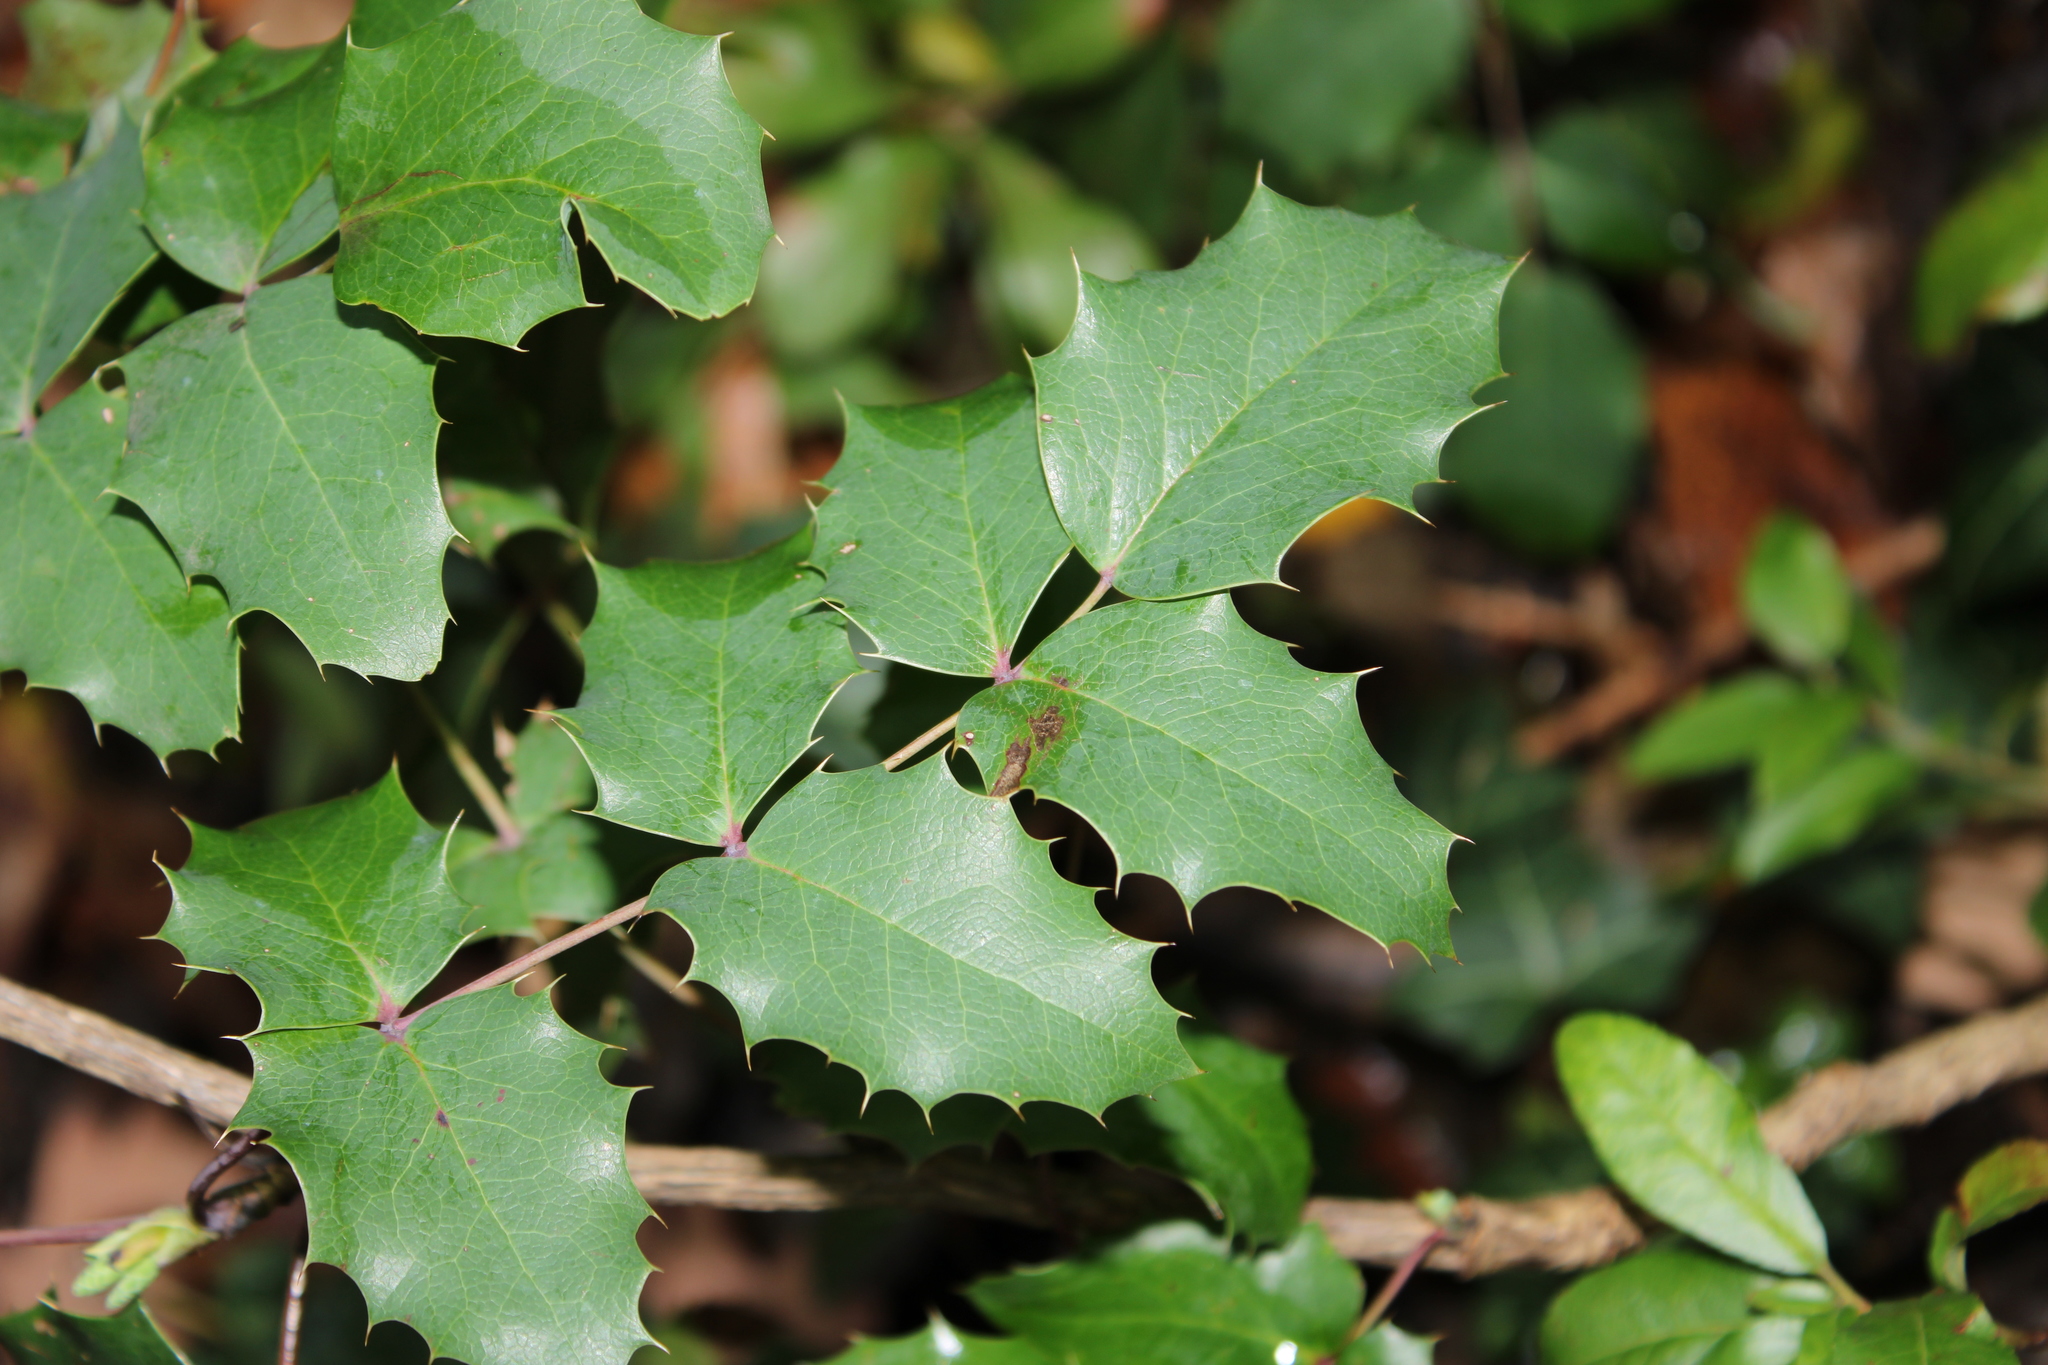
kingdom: Plantae
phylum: Tracheophyta
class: Magnoliopsida
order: Ranunculales
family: Berberidaceae
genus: Mahonia
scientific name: Mahonia aquifolium
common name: Oregon-grape
